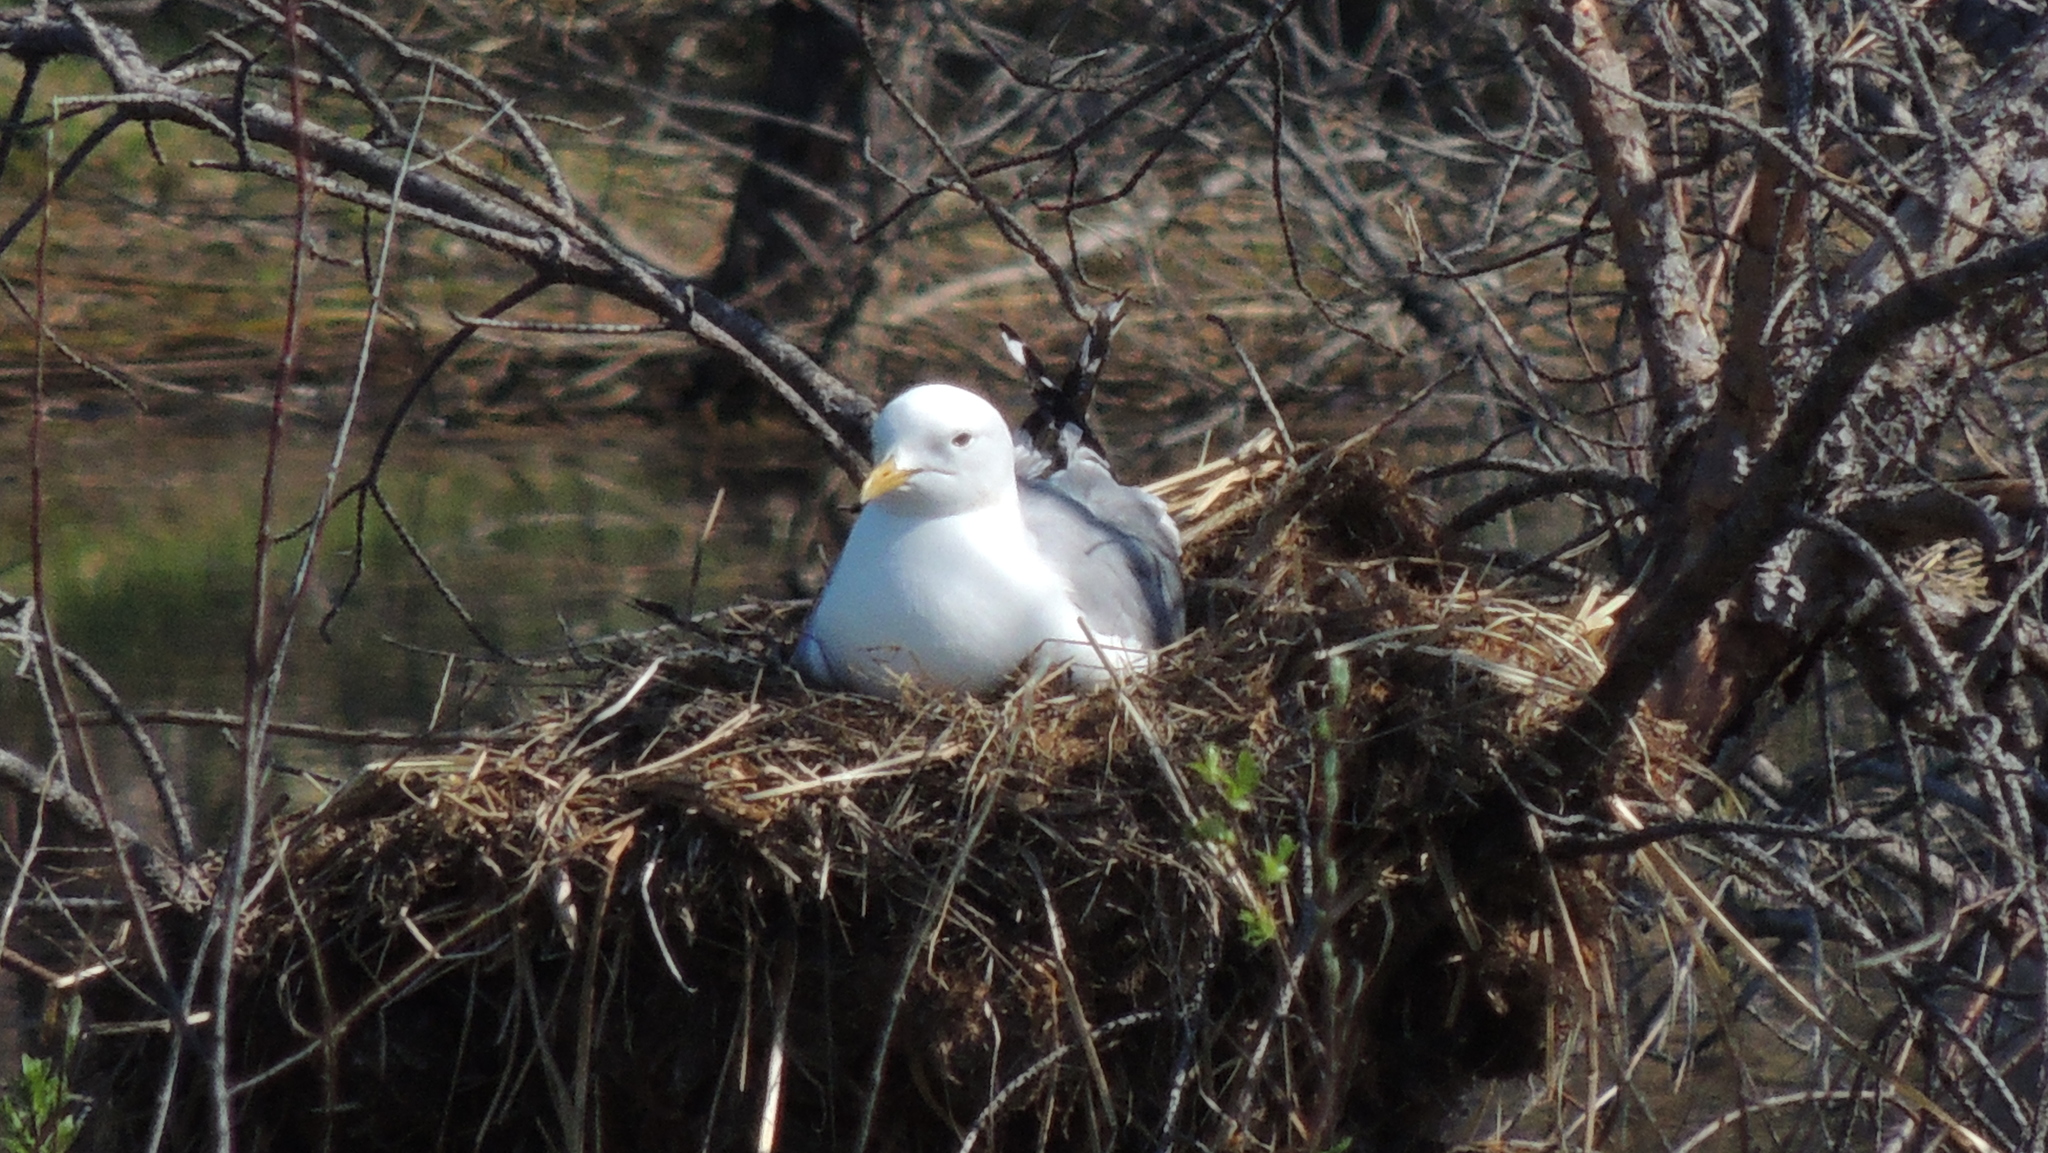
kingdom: Animalia
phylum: Chordata
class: Aves
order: Charadriiformes
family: Laridae
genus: Larus
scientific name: Larus canus
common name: Mew gull
